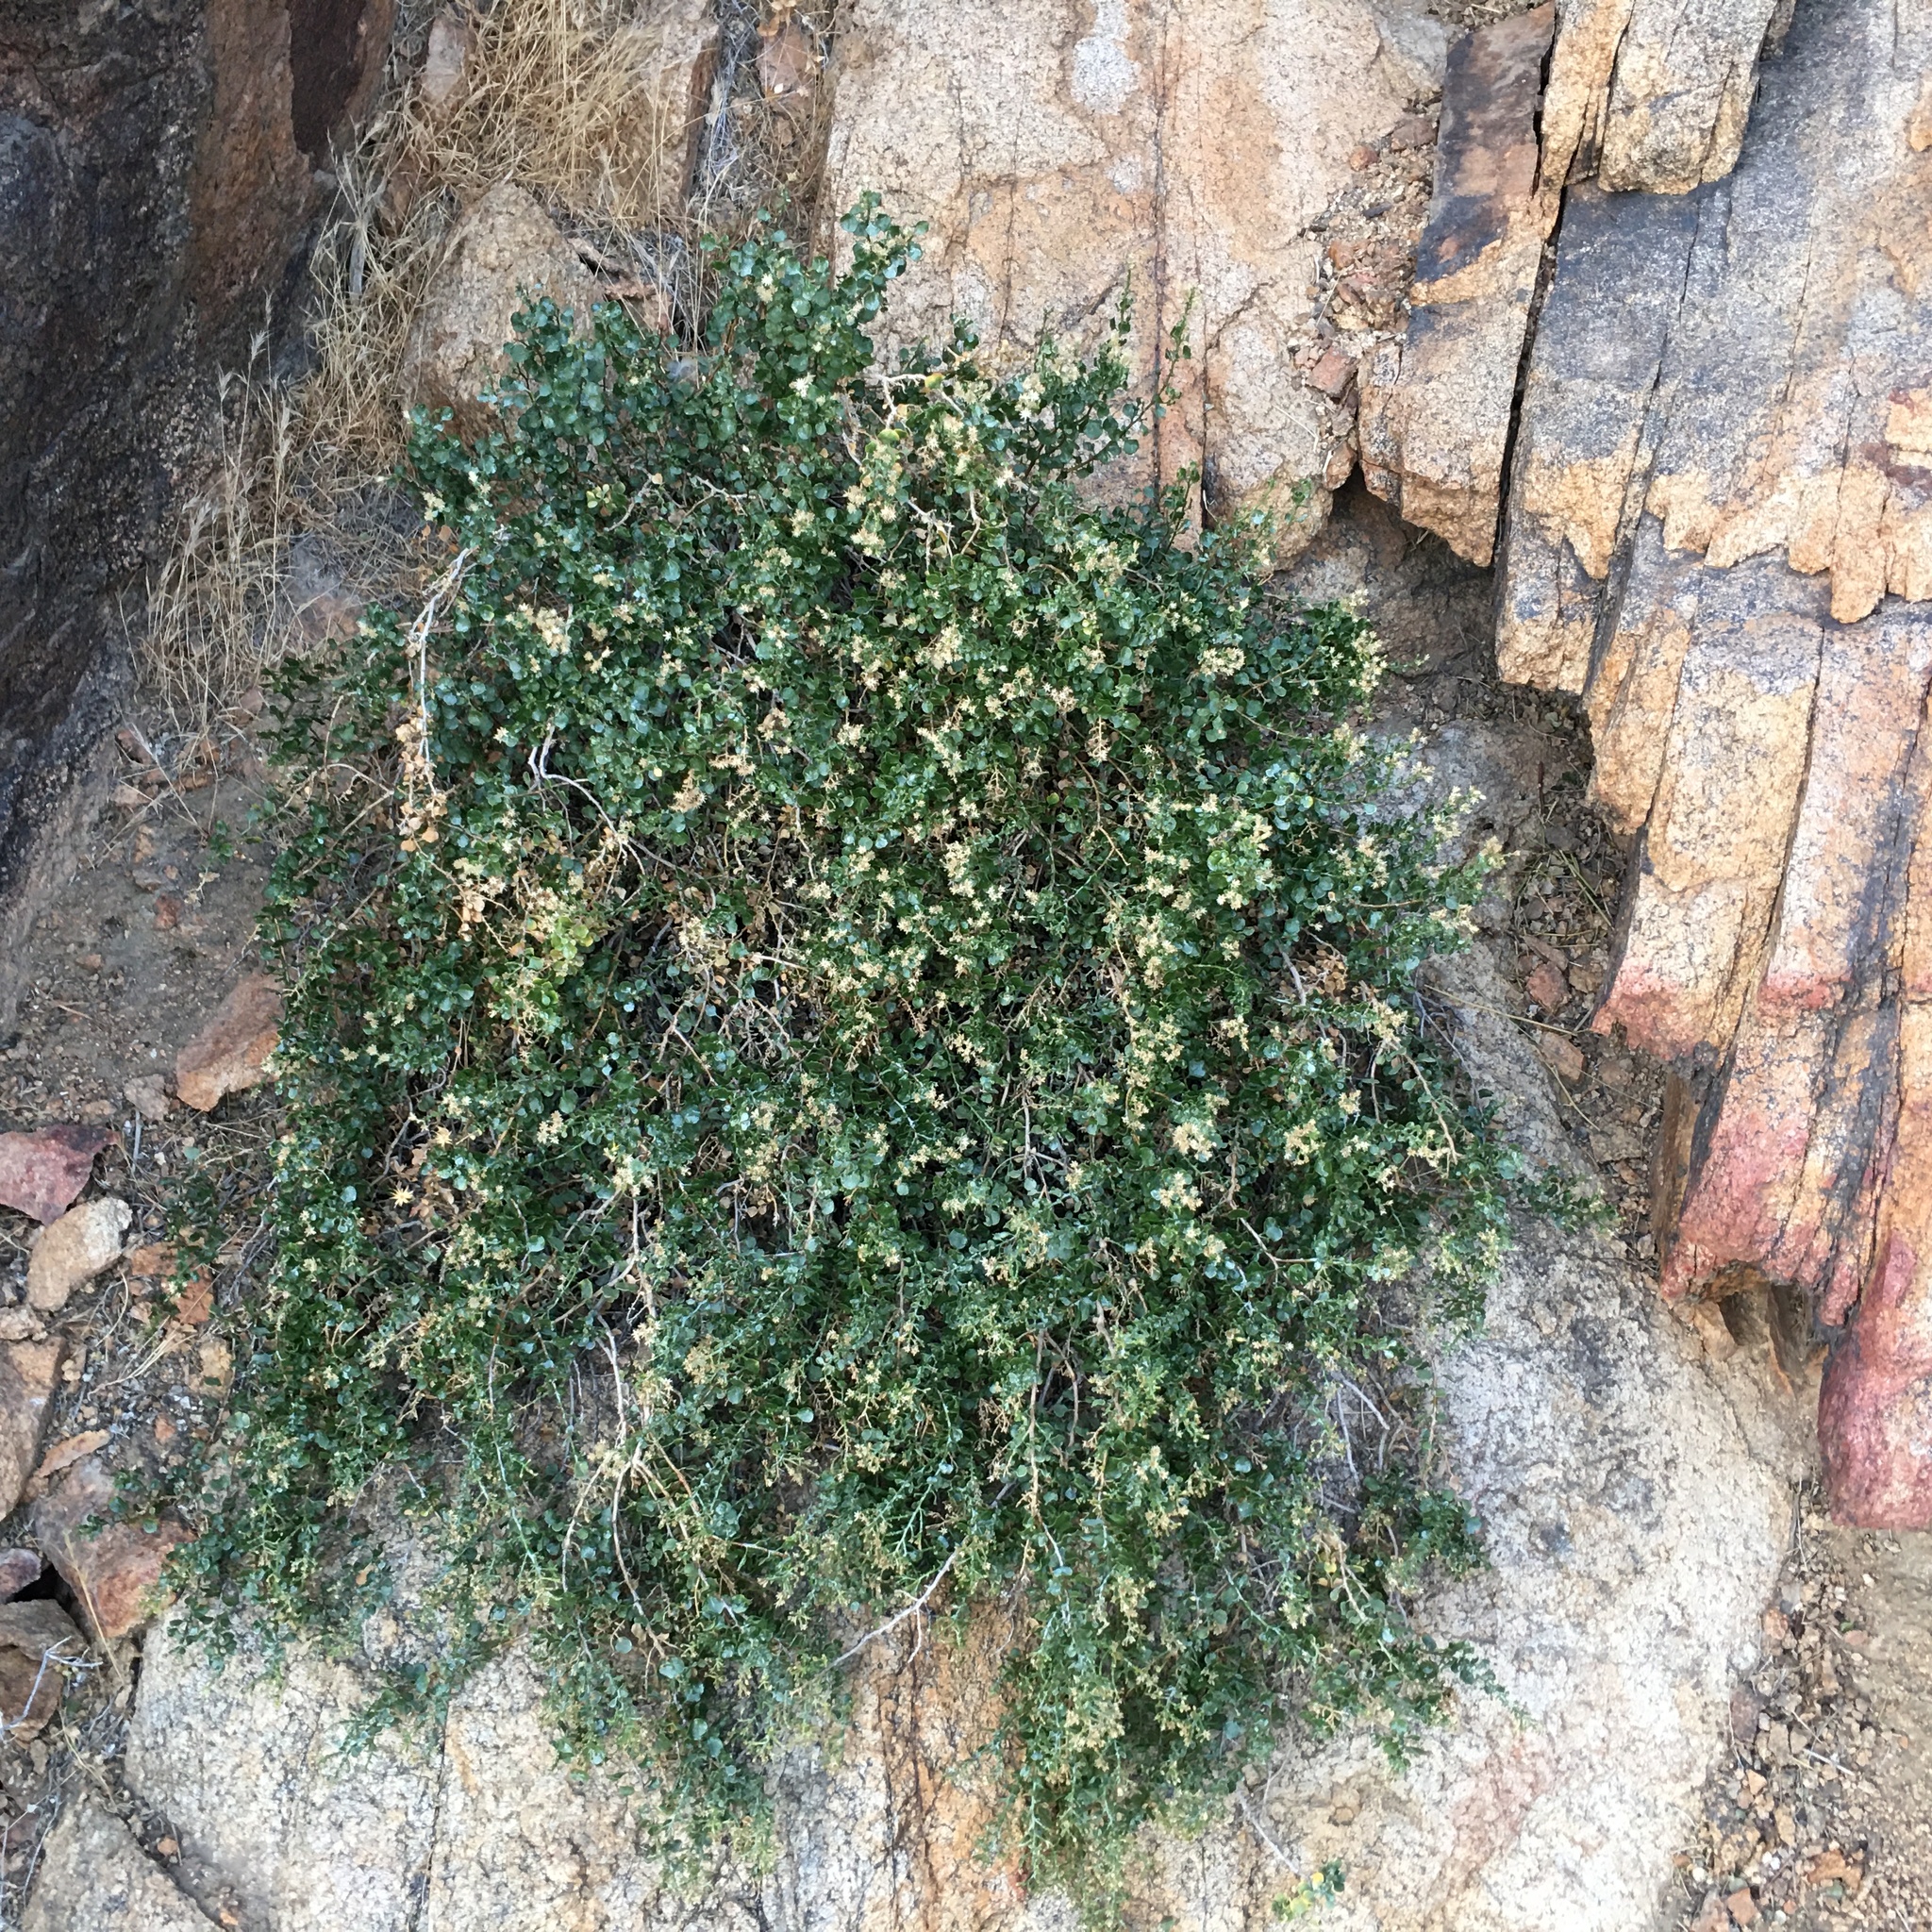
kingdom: Plantae
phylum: Tracheophyta
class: Magnoliopsida
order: Asterales
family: Asteraceae
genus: Ericameria
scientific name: Ericameria cuneata
